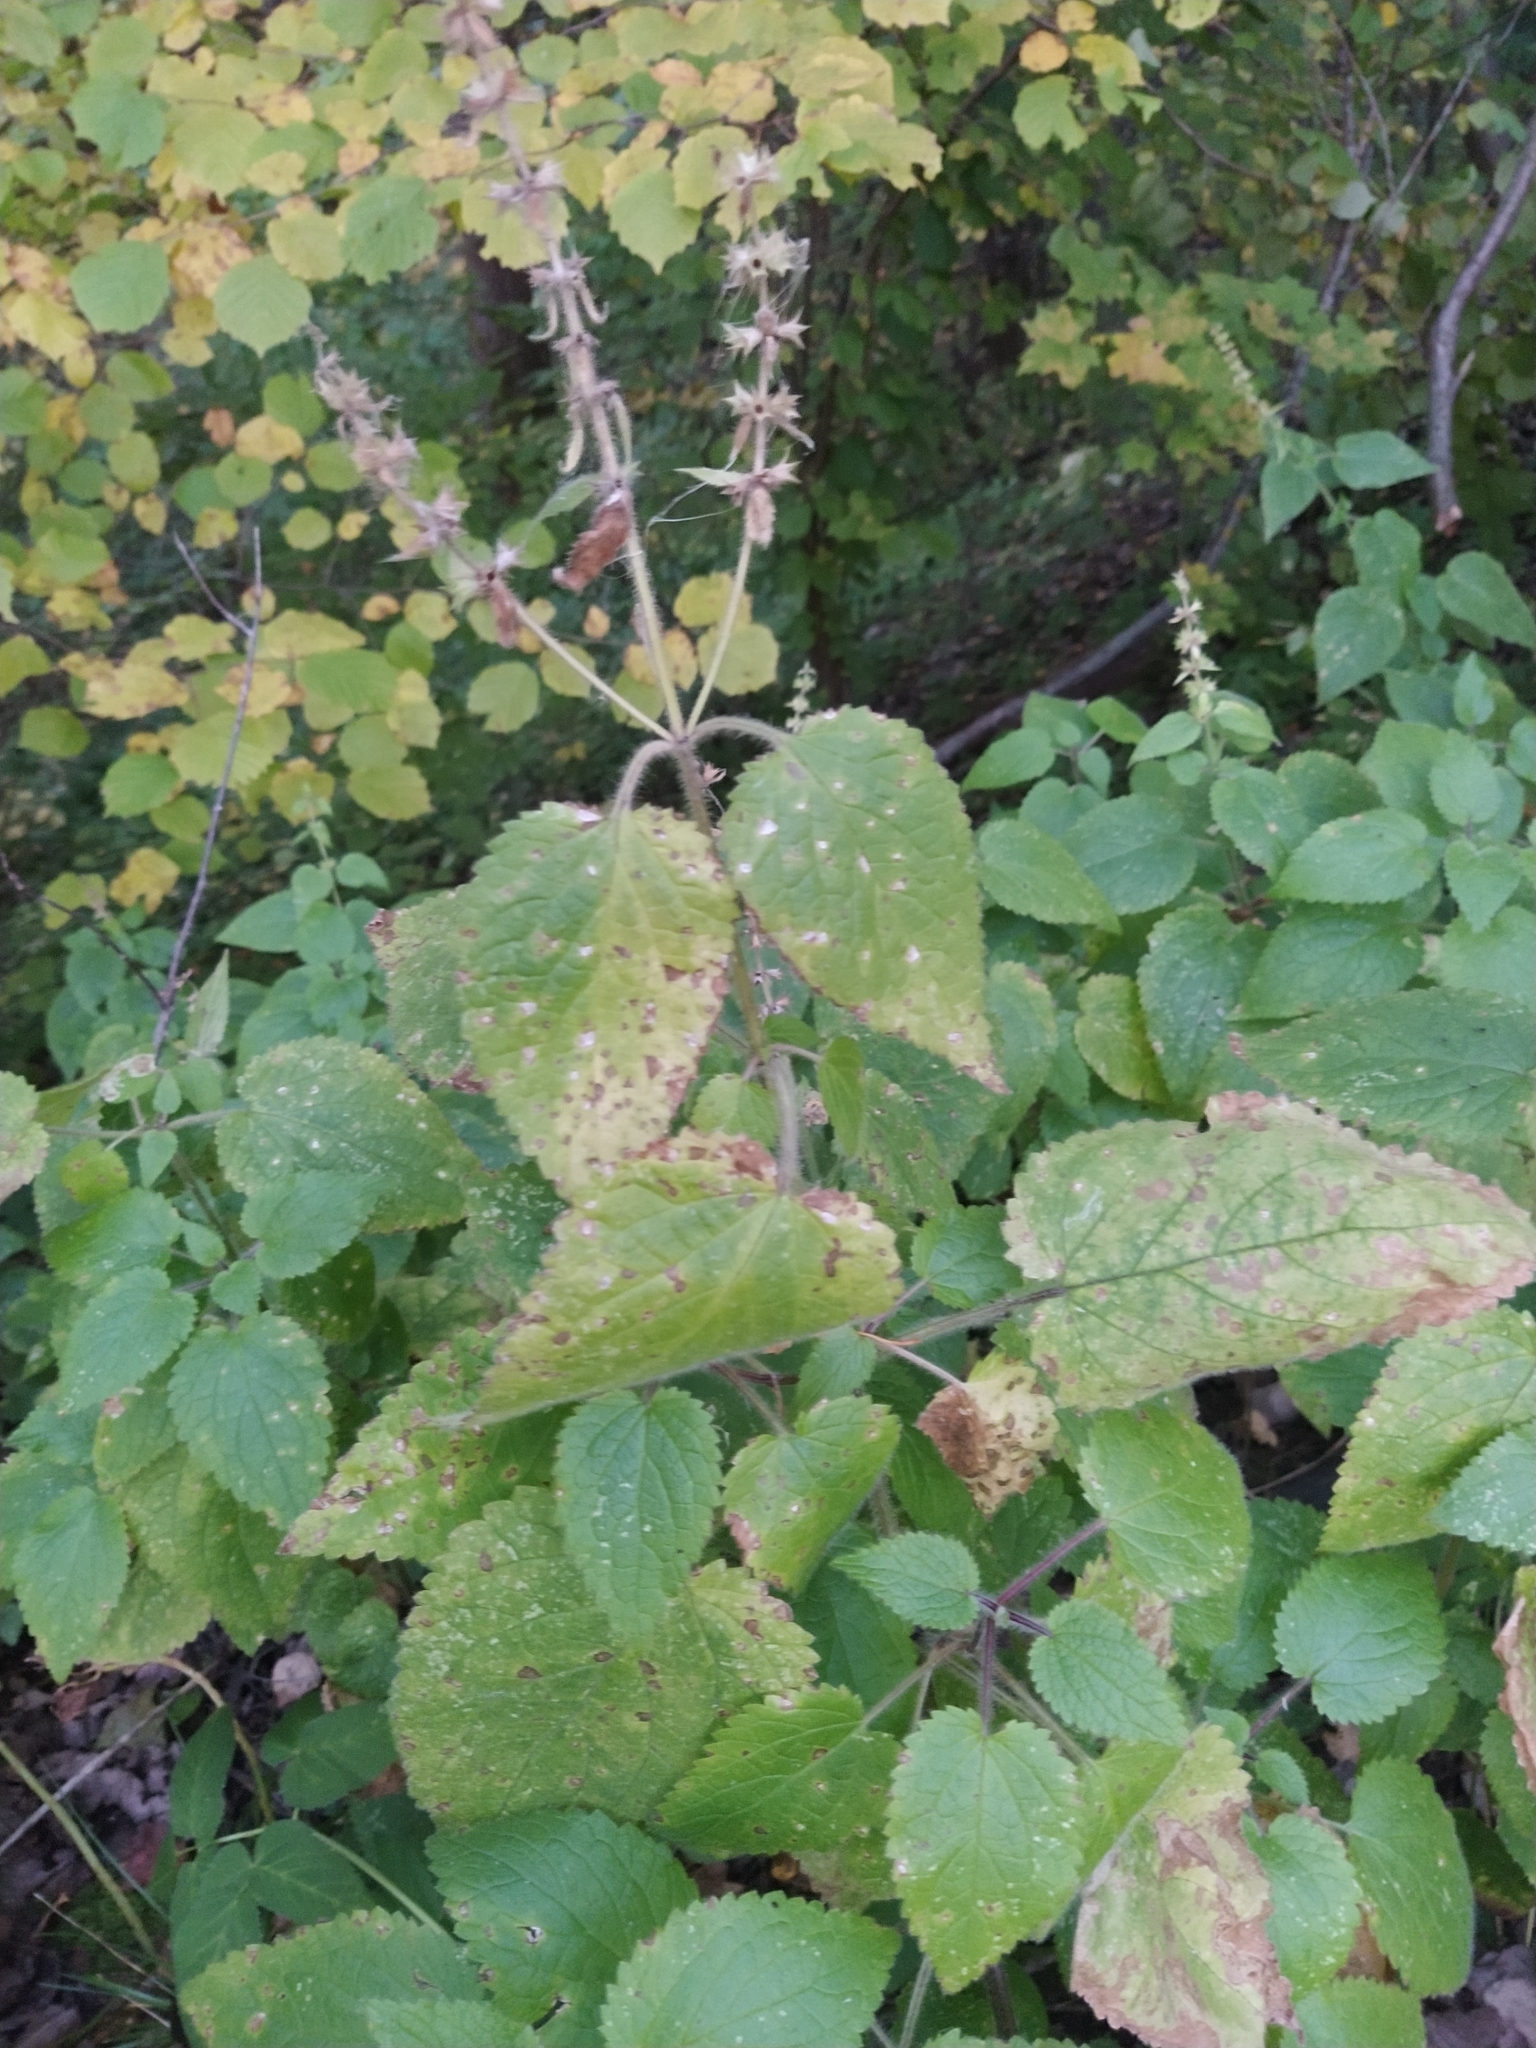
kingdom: Plantae
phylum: Tracheophyta
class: Magnoliopsida
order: Lamiales
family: Lamiaceae
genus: Stachys
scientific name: Stachys sylvatica
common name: Hedge woundwort
